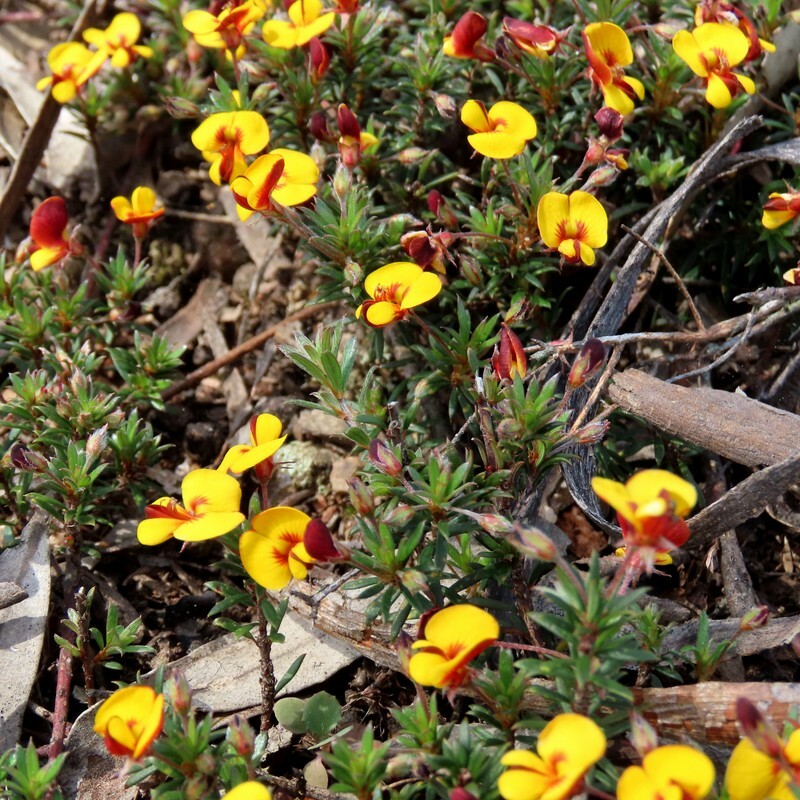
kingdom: Plantae
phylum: Tracheophyta
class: Magnoliopsida
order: Fabales
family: Fabaceae
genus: Pultenaea
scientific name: Pultenaea pedunculata
